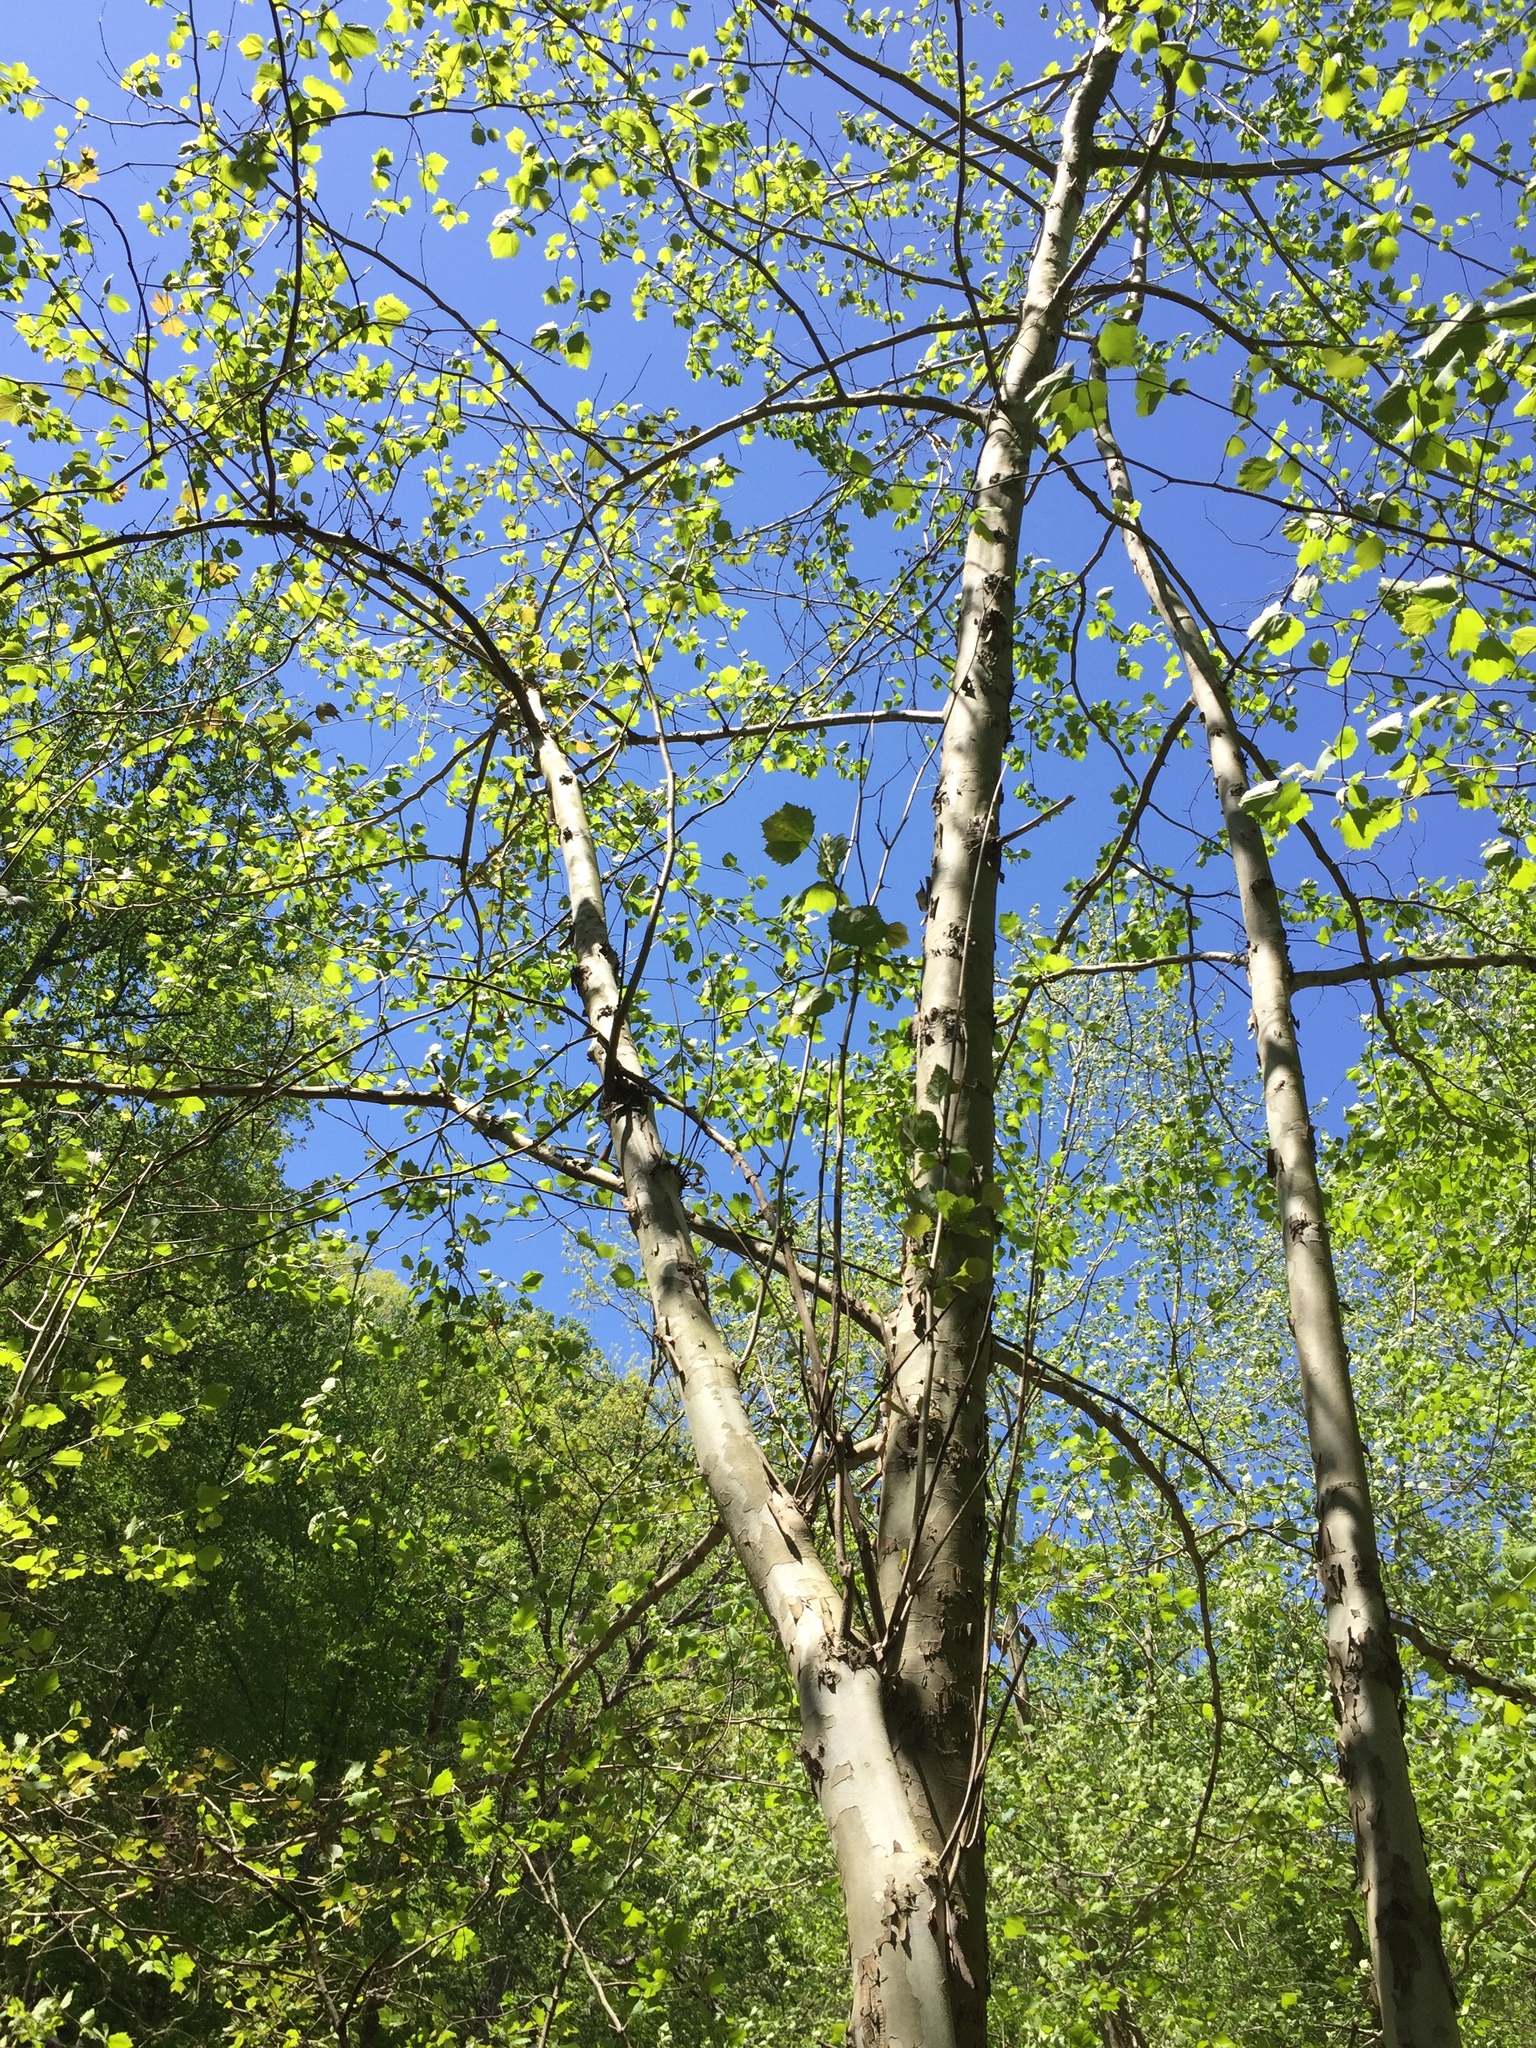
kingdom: Plantae
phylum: Tracheophyta
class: Magnoliopsida
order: Proteales
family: Platanaceae
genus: Platanus
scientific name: Platanus occidentalis
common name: American sycamore
